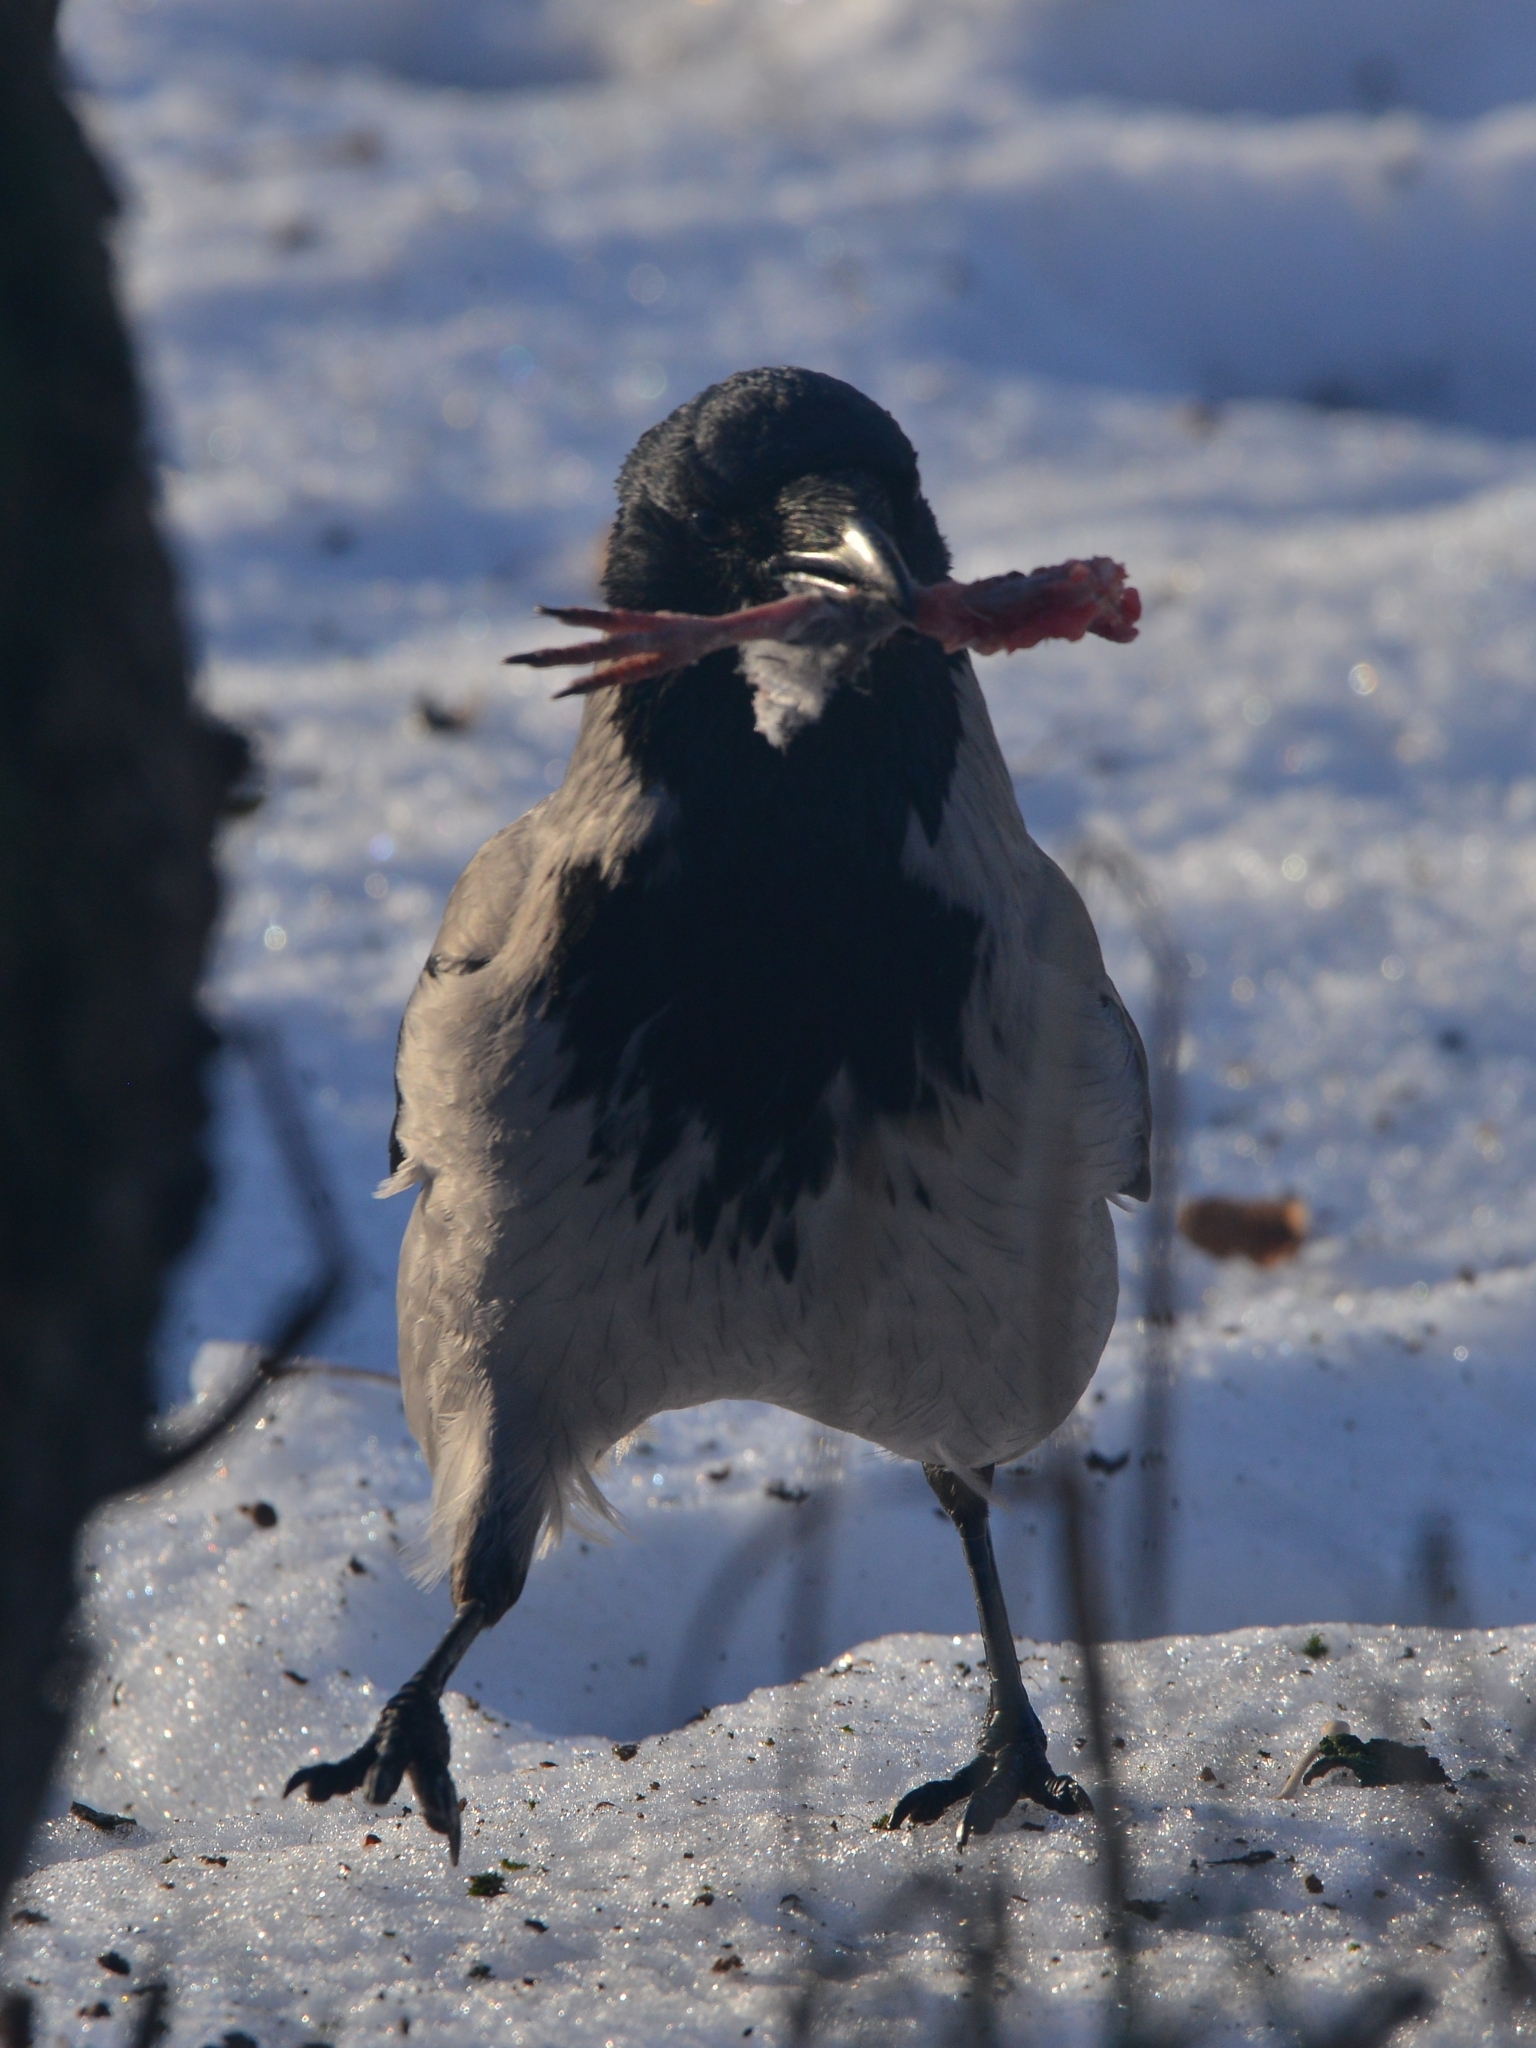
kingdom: Animalia
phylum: Chordata
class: Aves
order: Passeriformes
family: Corvidae
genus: Corvus
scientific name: Corvus cornix
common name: Hooded crow
